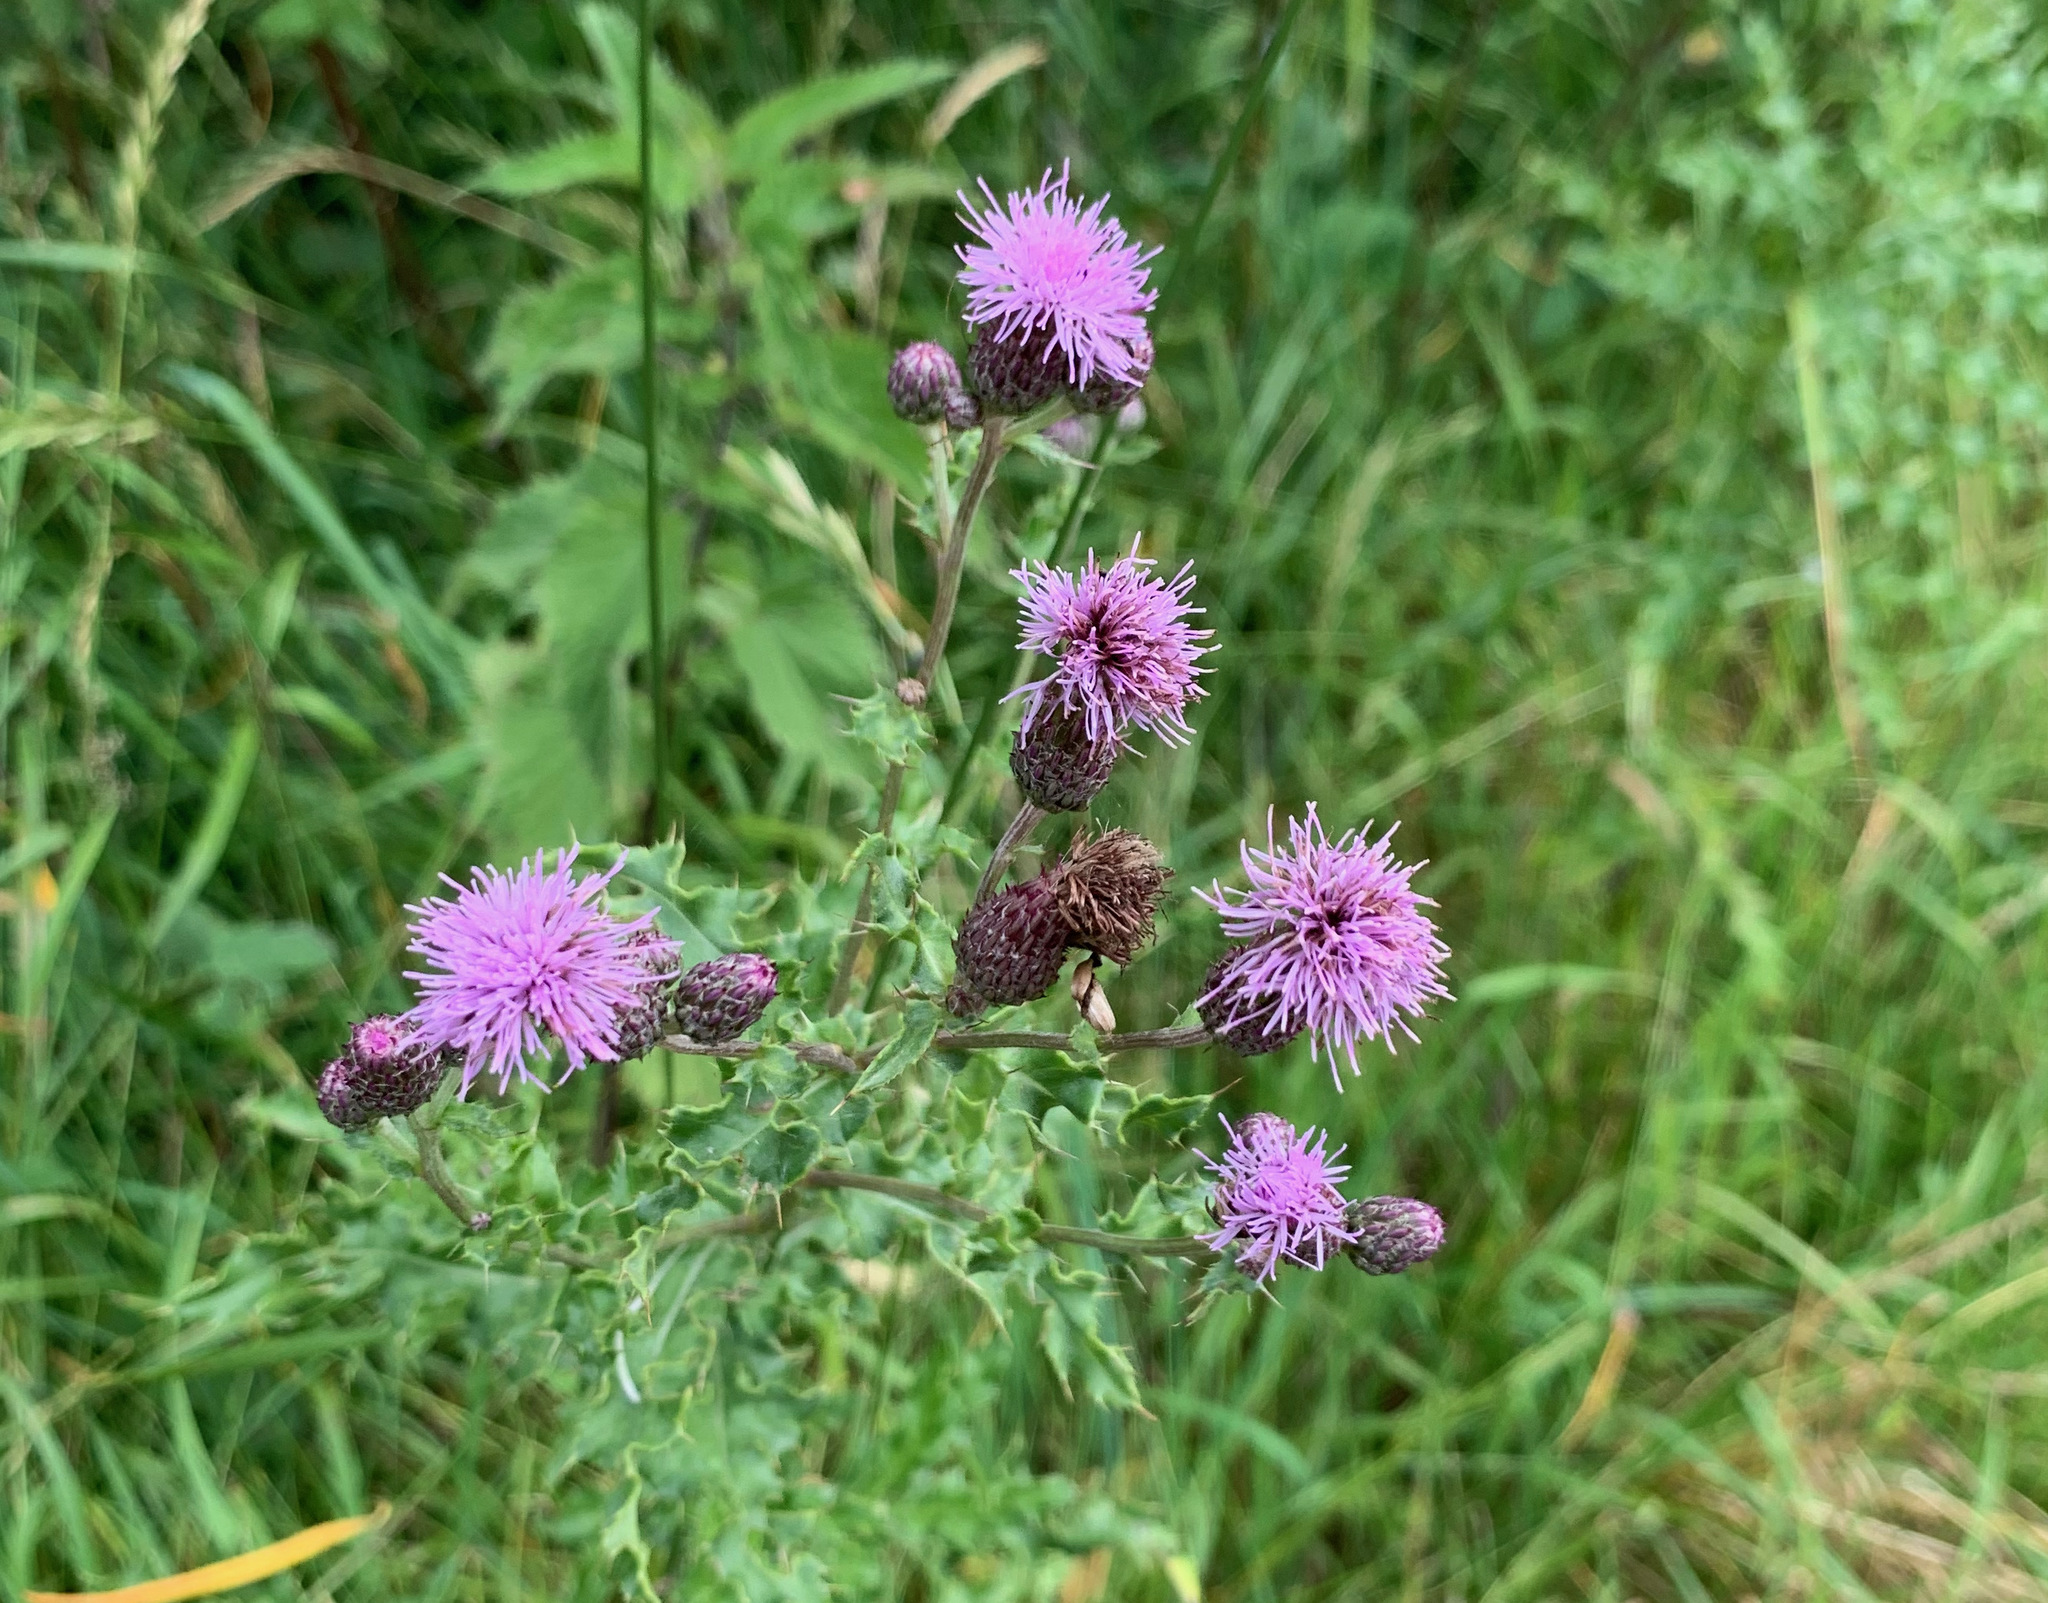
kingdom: Plantae
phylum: Tracheophyta
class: Magnoliopsida
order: Asterales
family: Asteraceae
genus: Cirsium
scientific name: Cirsium arvense
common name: Creeping thistle
